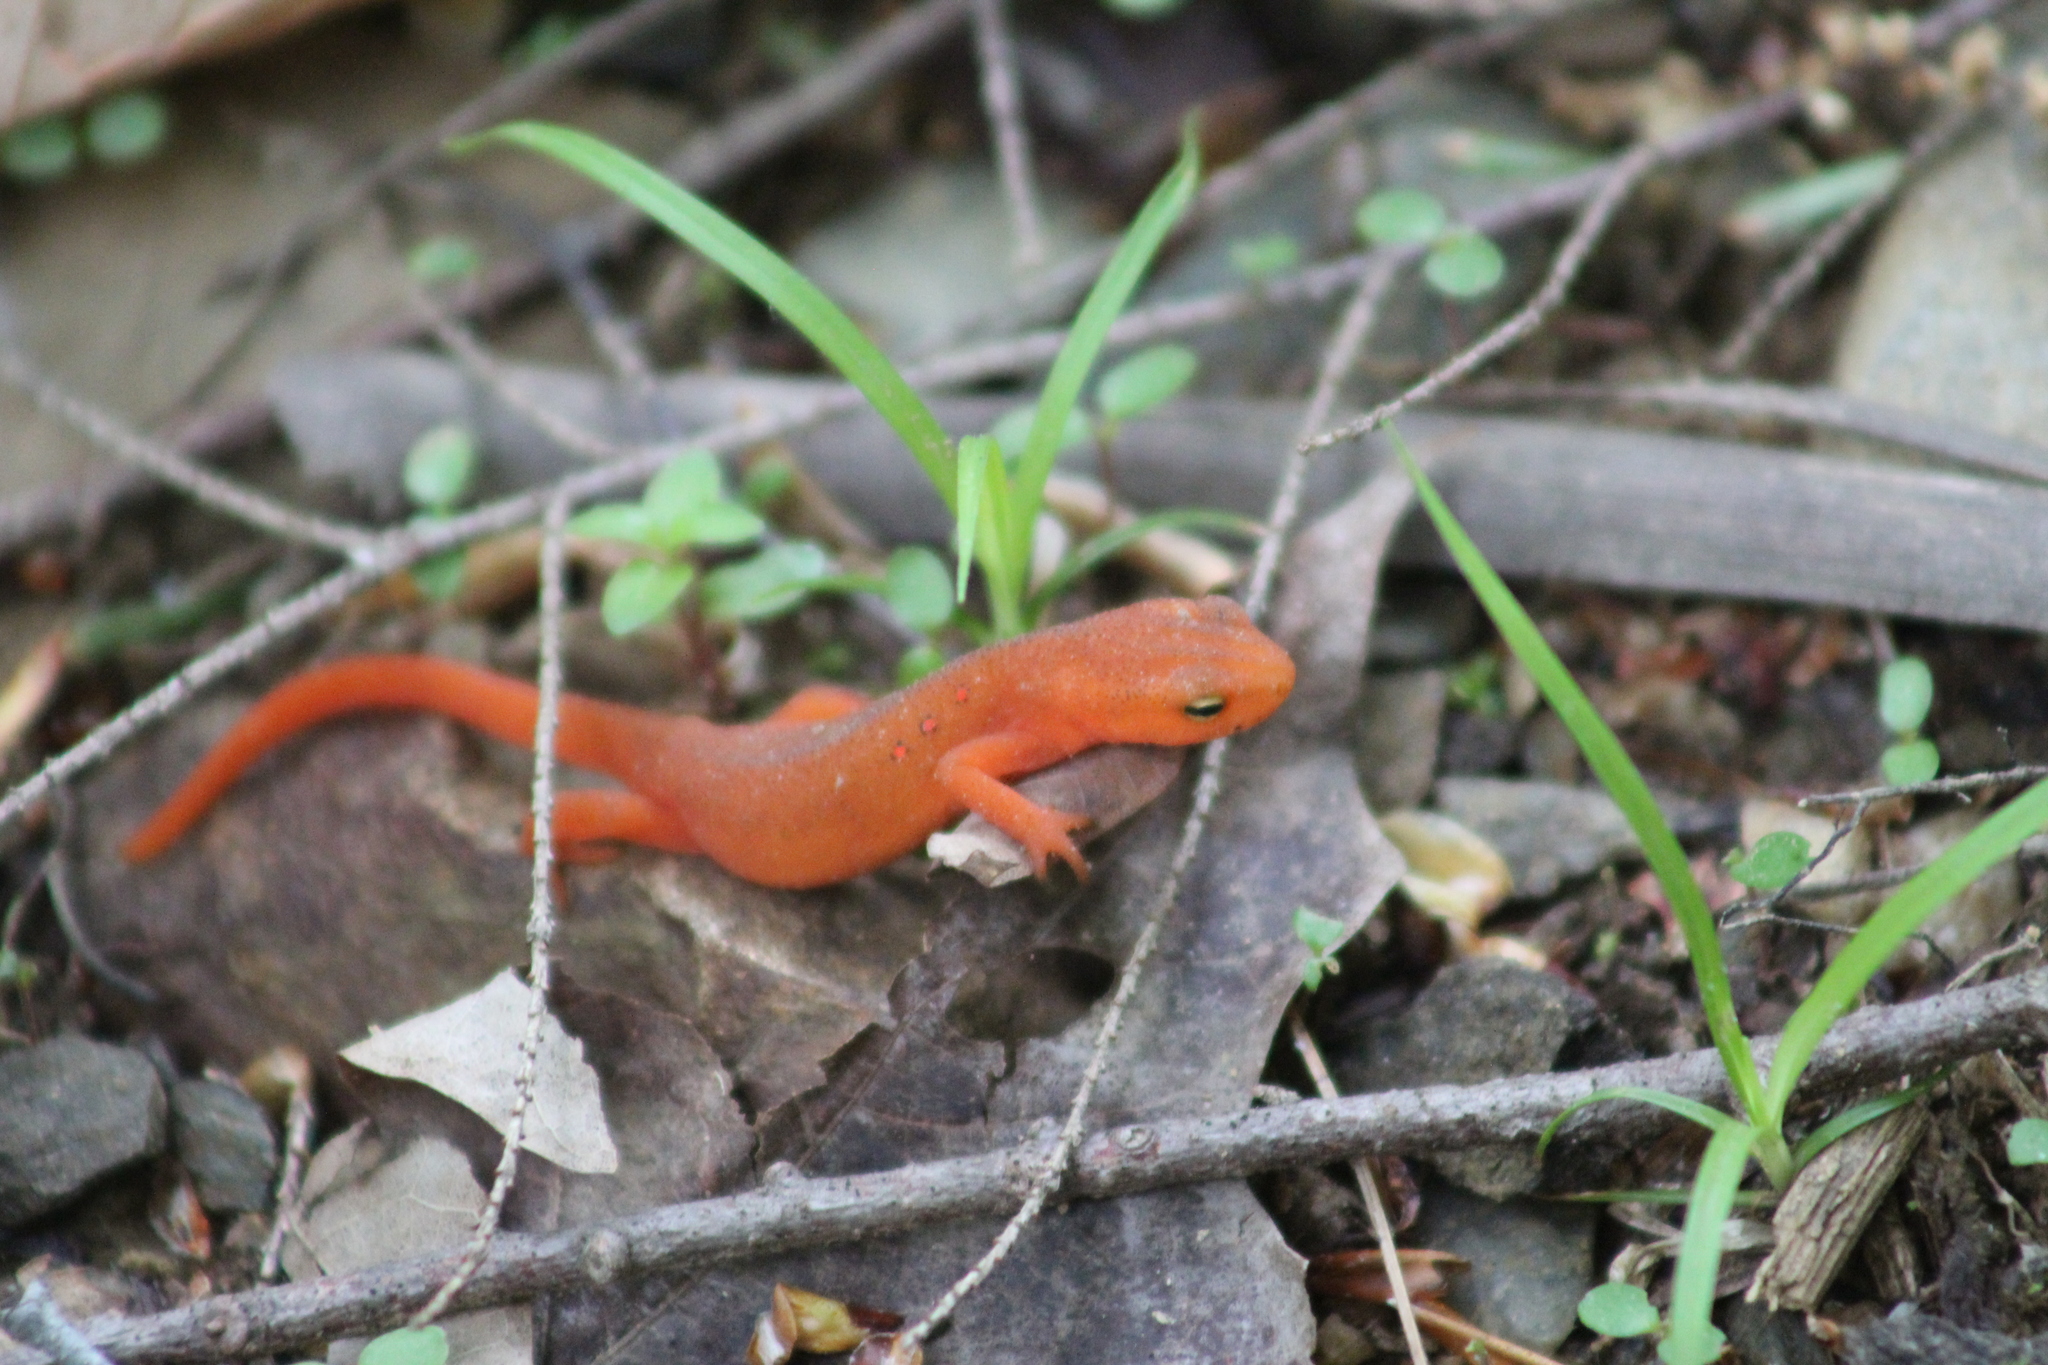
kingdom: Animalia
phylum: Chordata
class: Amphibia
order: Caudata
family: Salamandridae
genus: Notophthalmus
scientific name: Notophthalmus viridescens
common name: Eastern newt
